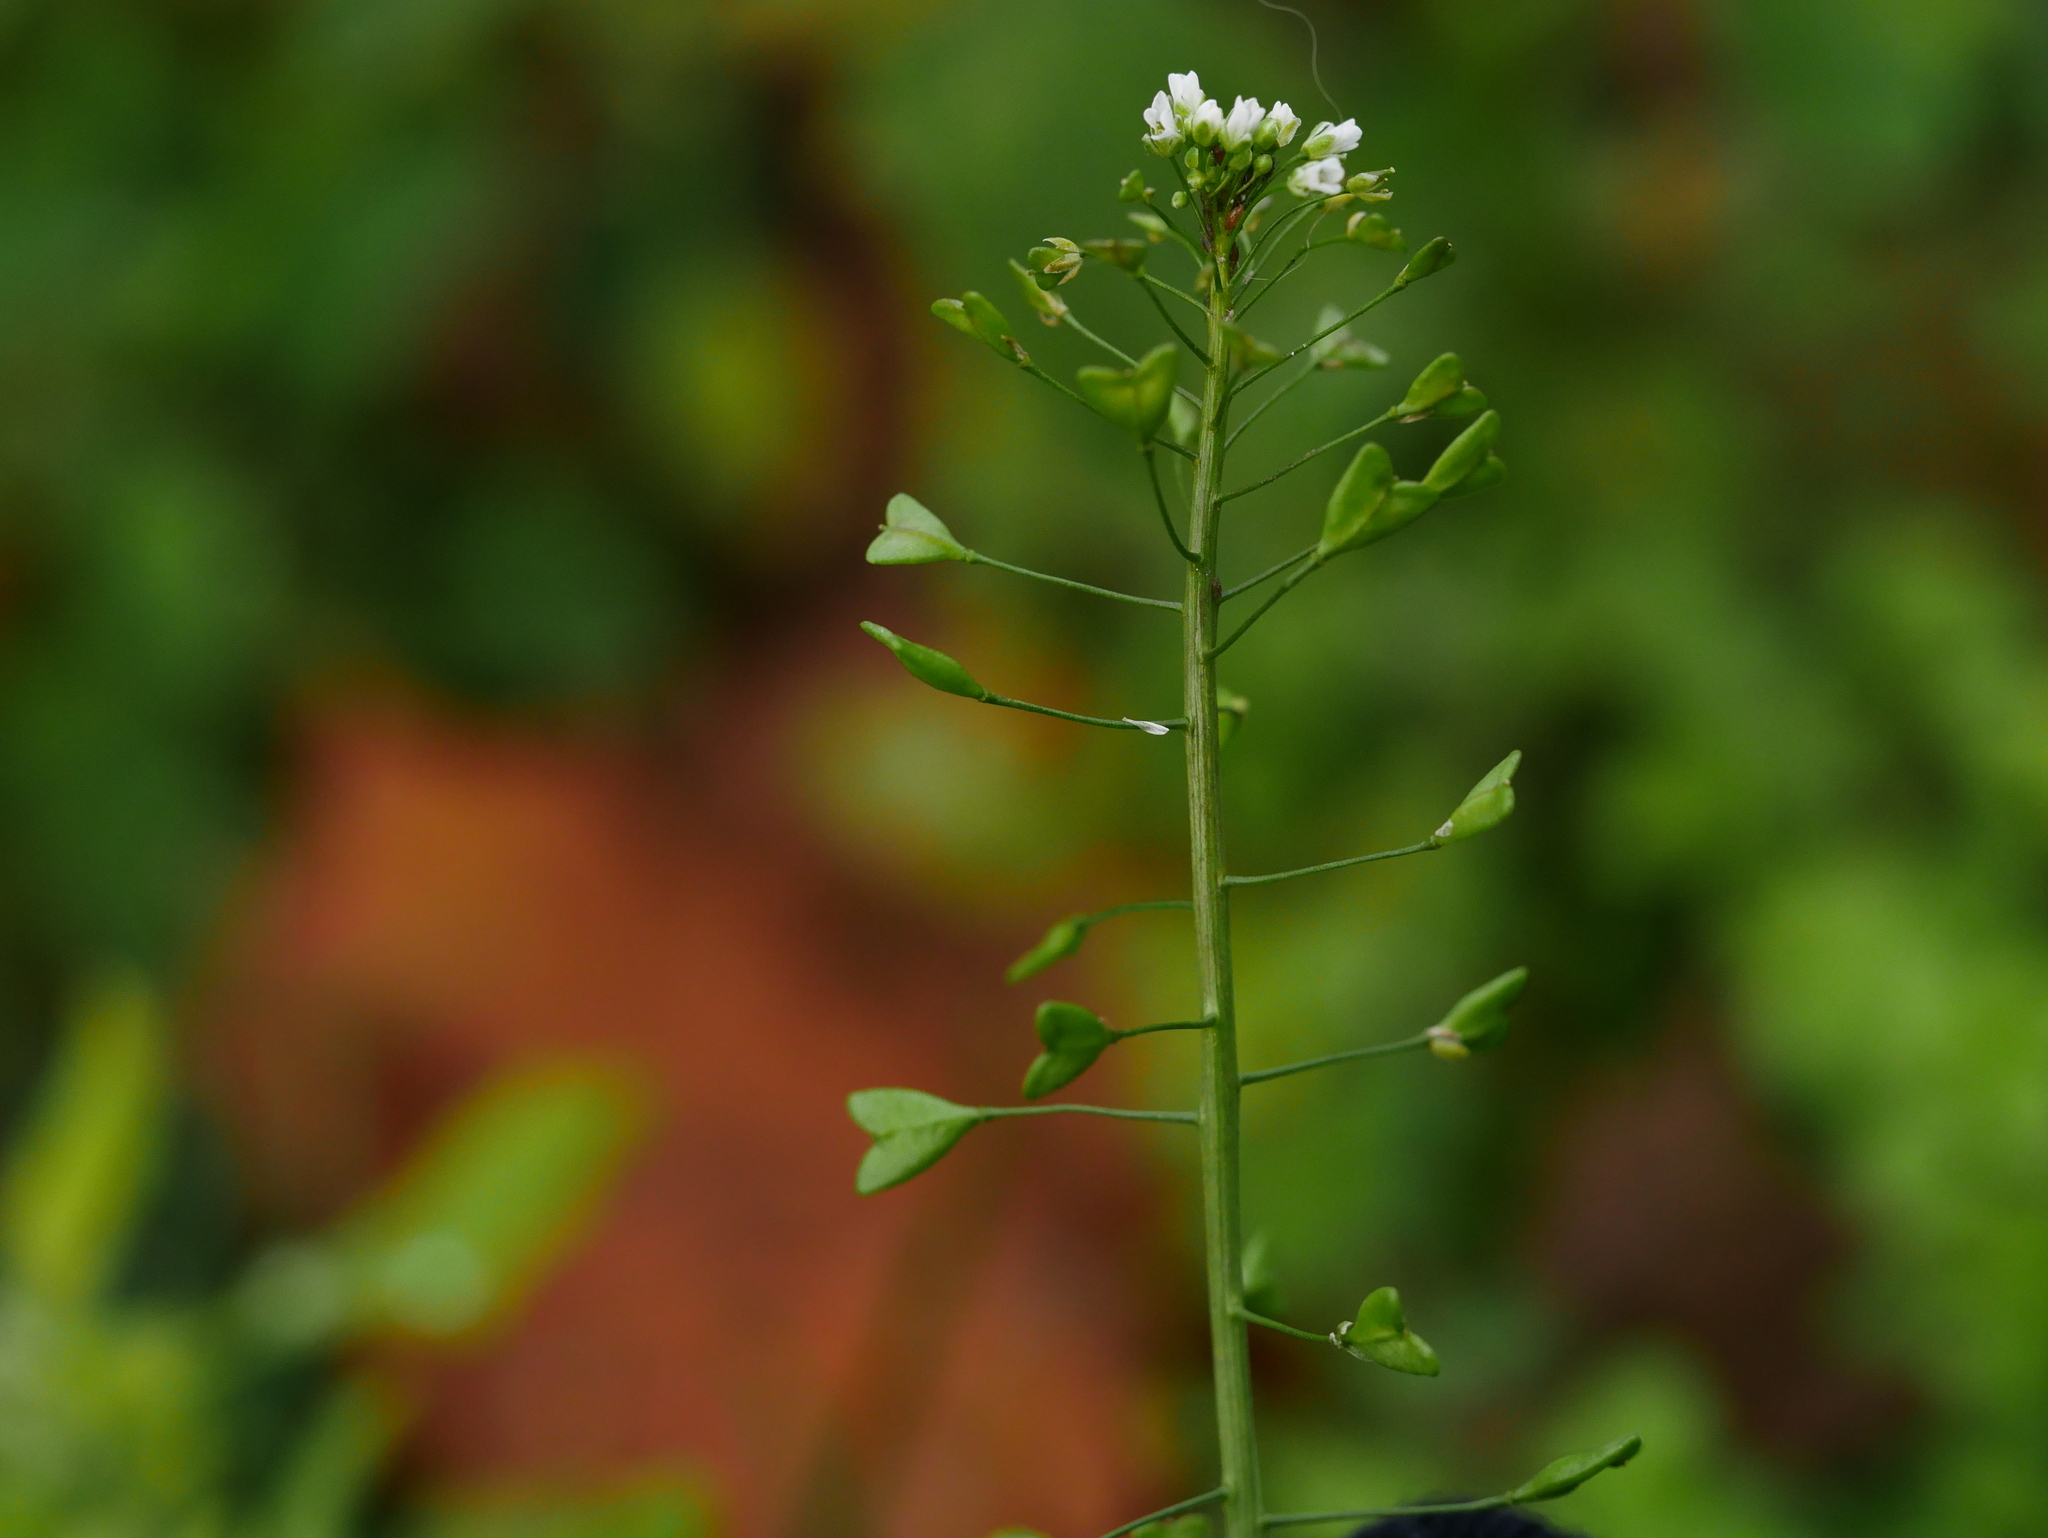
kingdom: Plantae
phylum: Tracheophyta
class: Magnoliopsida
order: Brassicales
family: Brassicaceae
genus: Capsella
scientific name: Capsella bursa-pastoris
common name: Shepherd's purse
